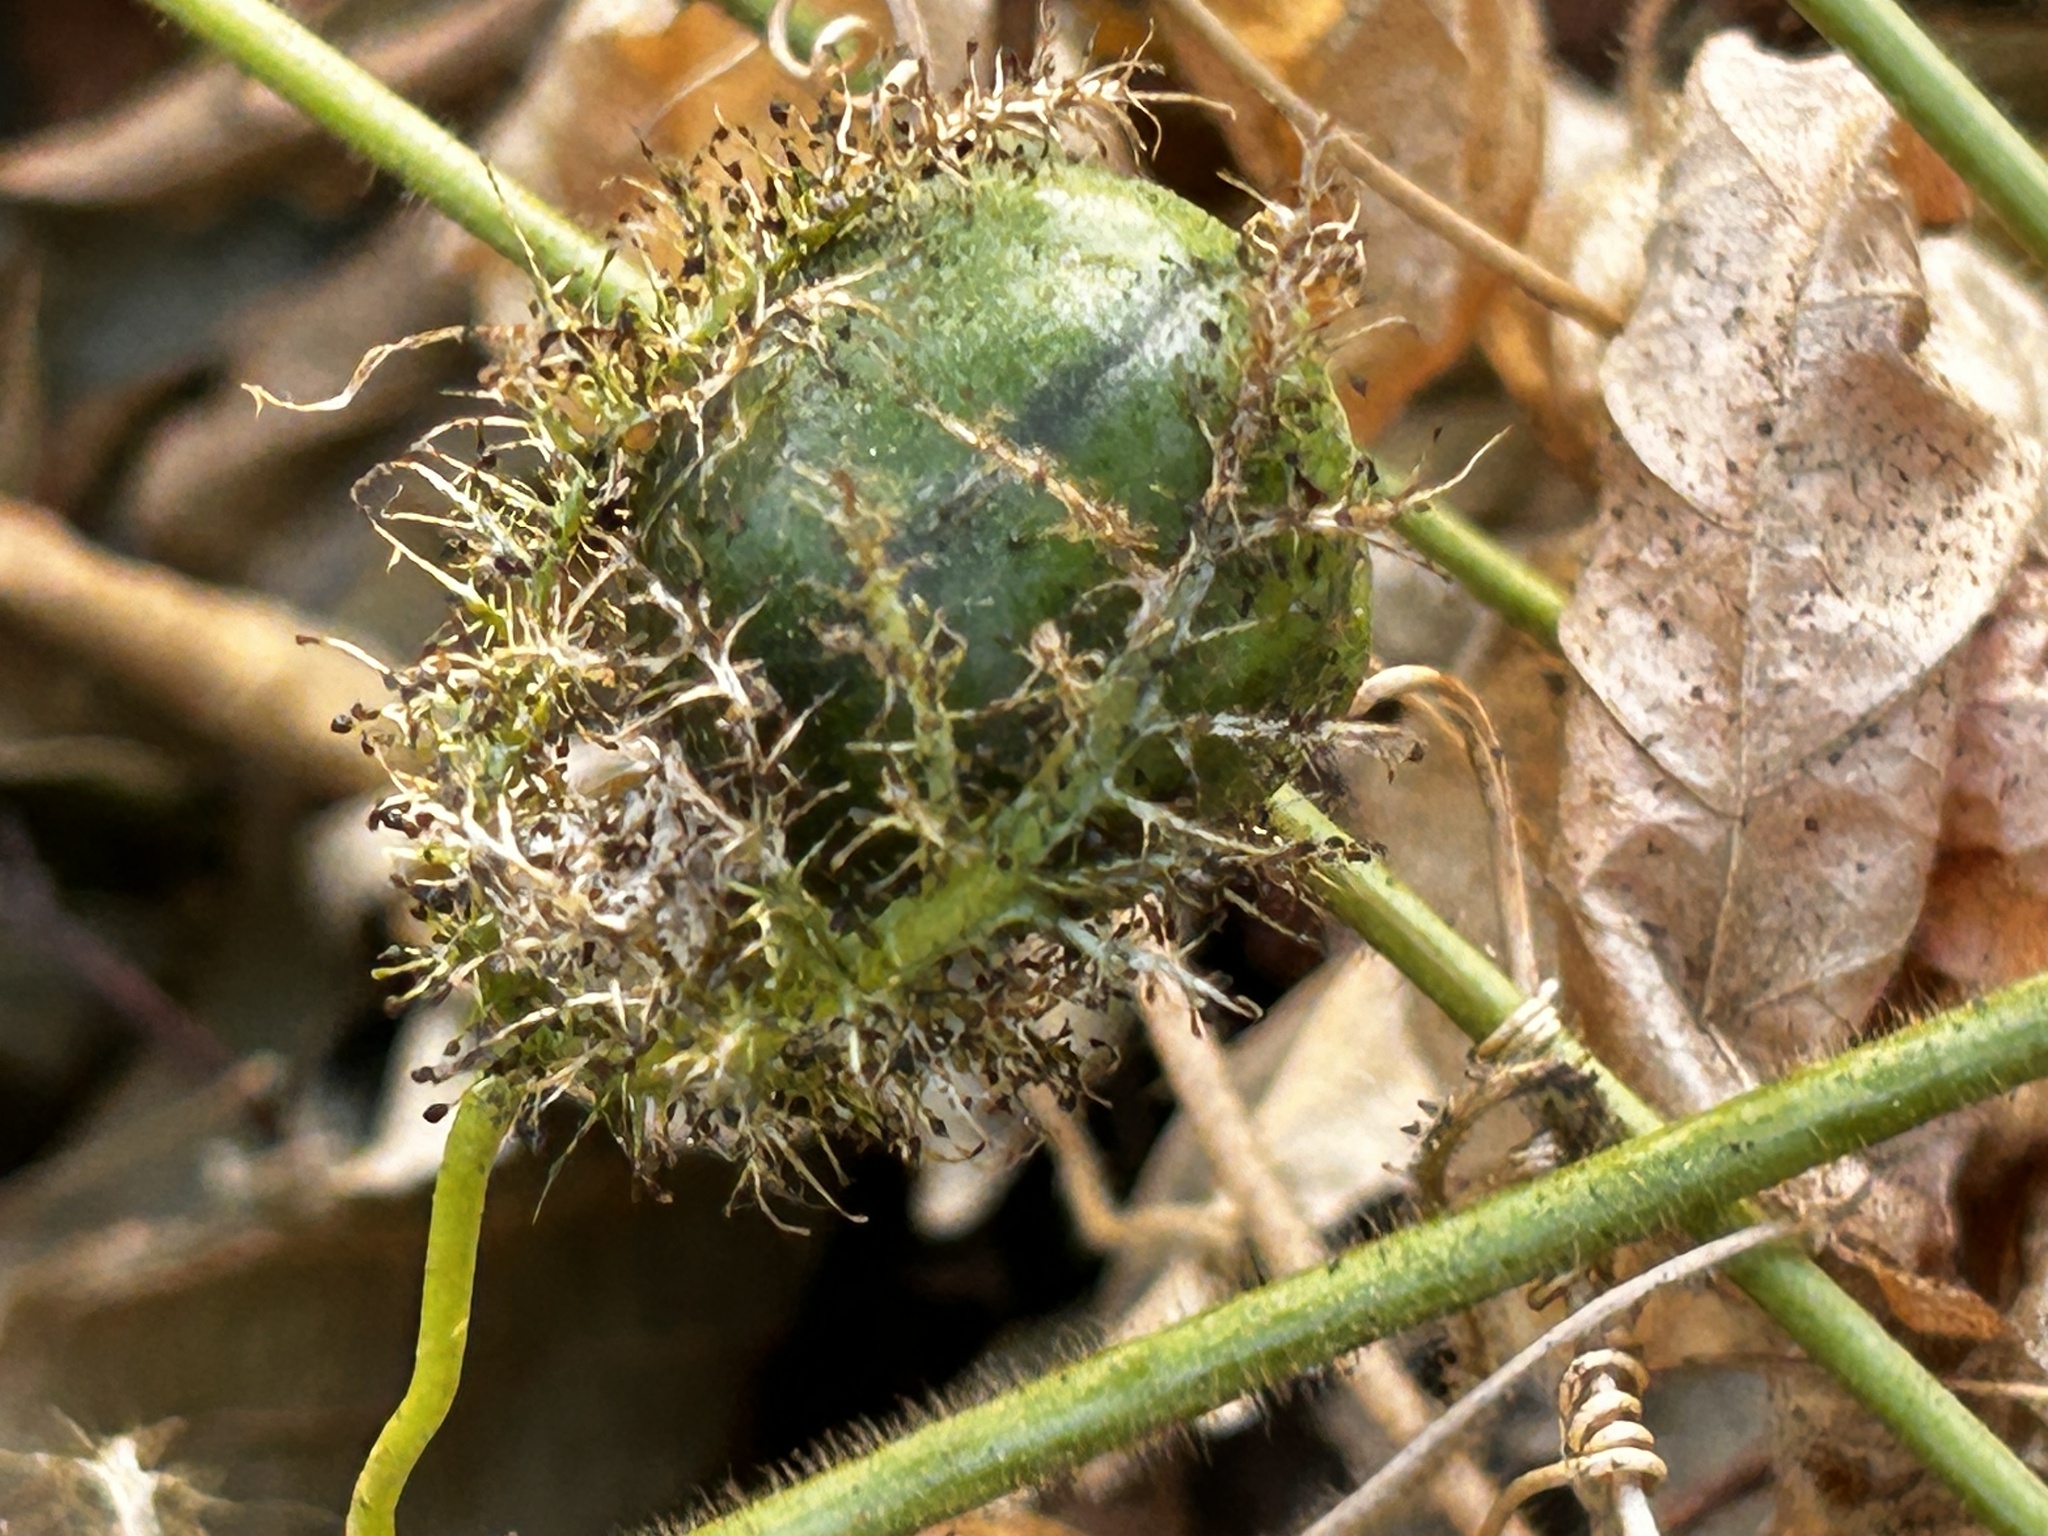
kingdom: Plantae
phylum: Tracheophyta
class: Magnoliopsida
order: Malpighiales
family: Passifloraceae
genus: Passiflora
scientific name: Passiflora vesicaria
